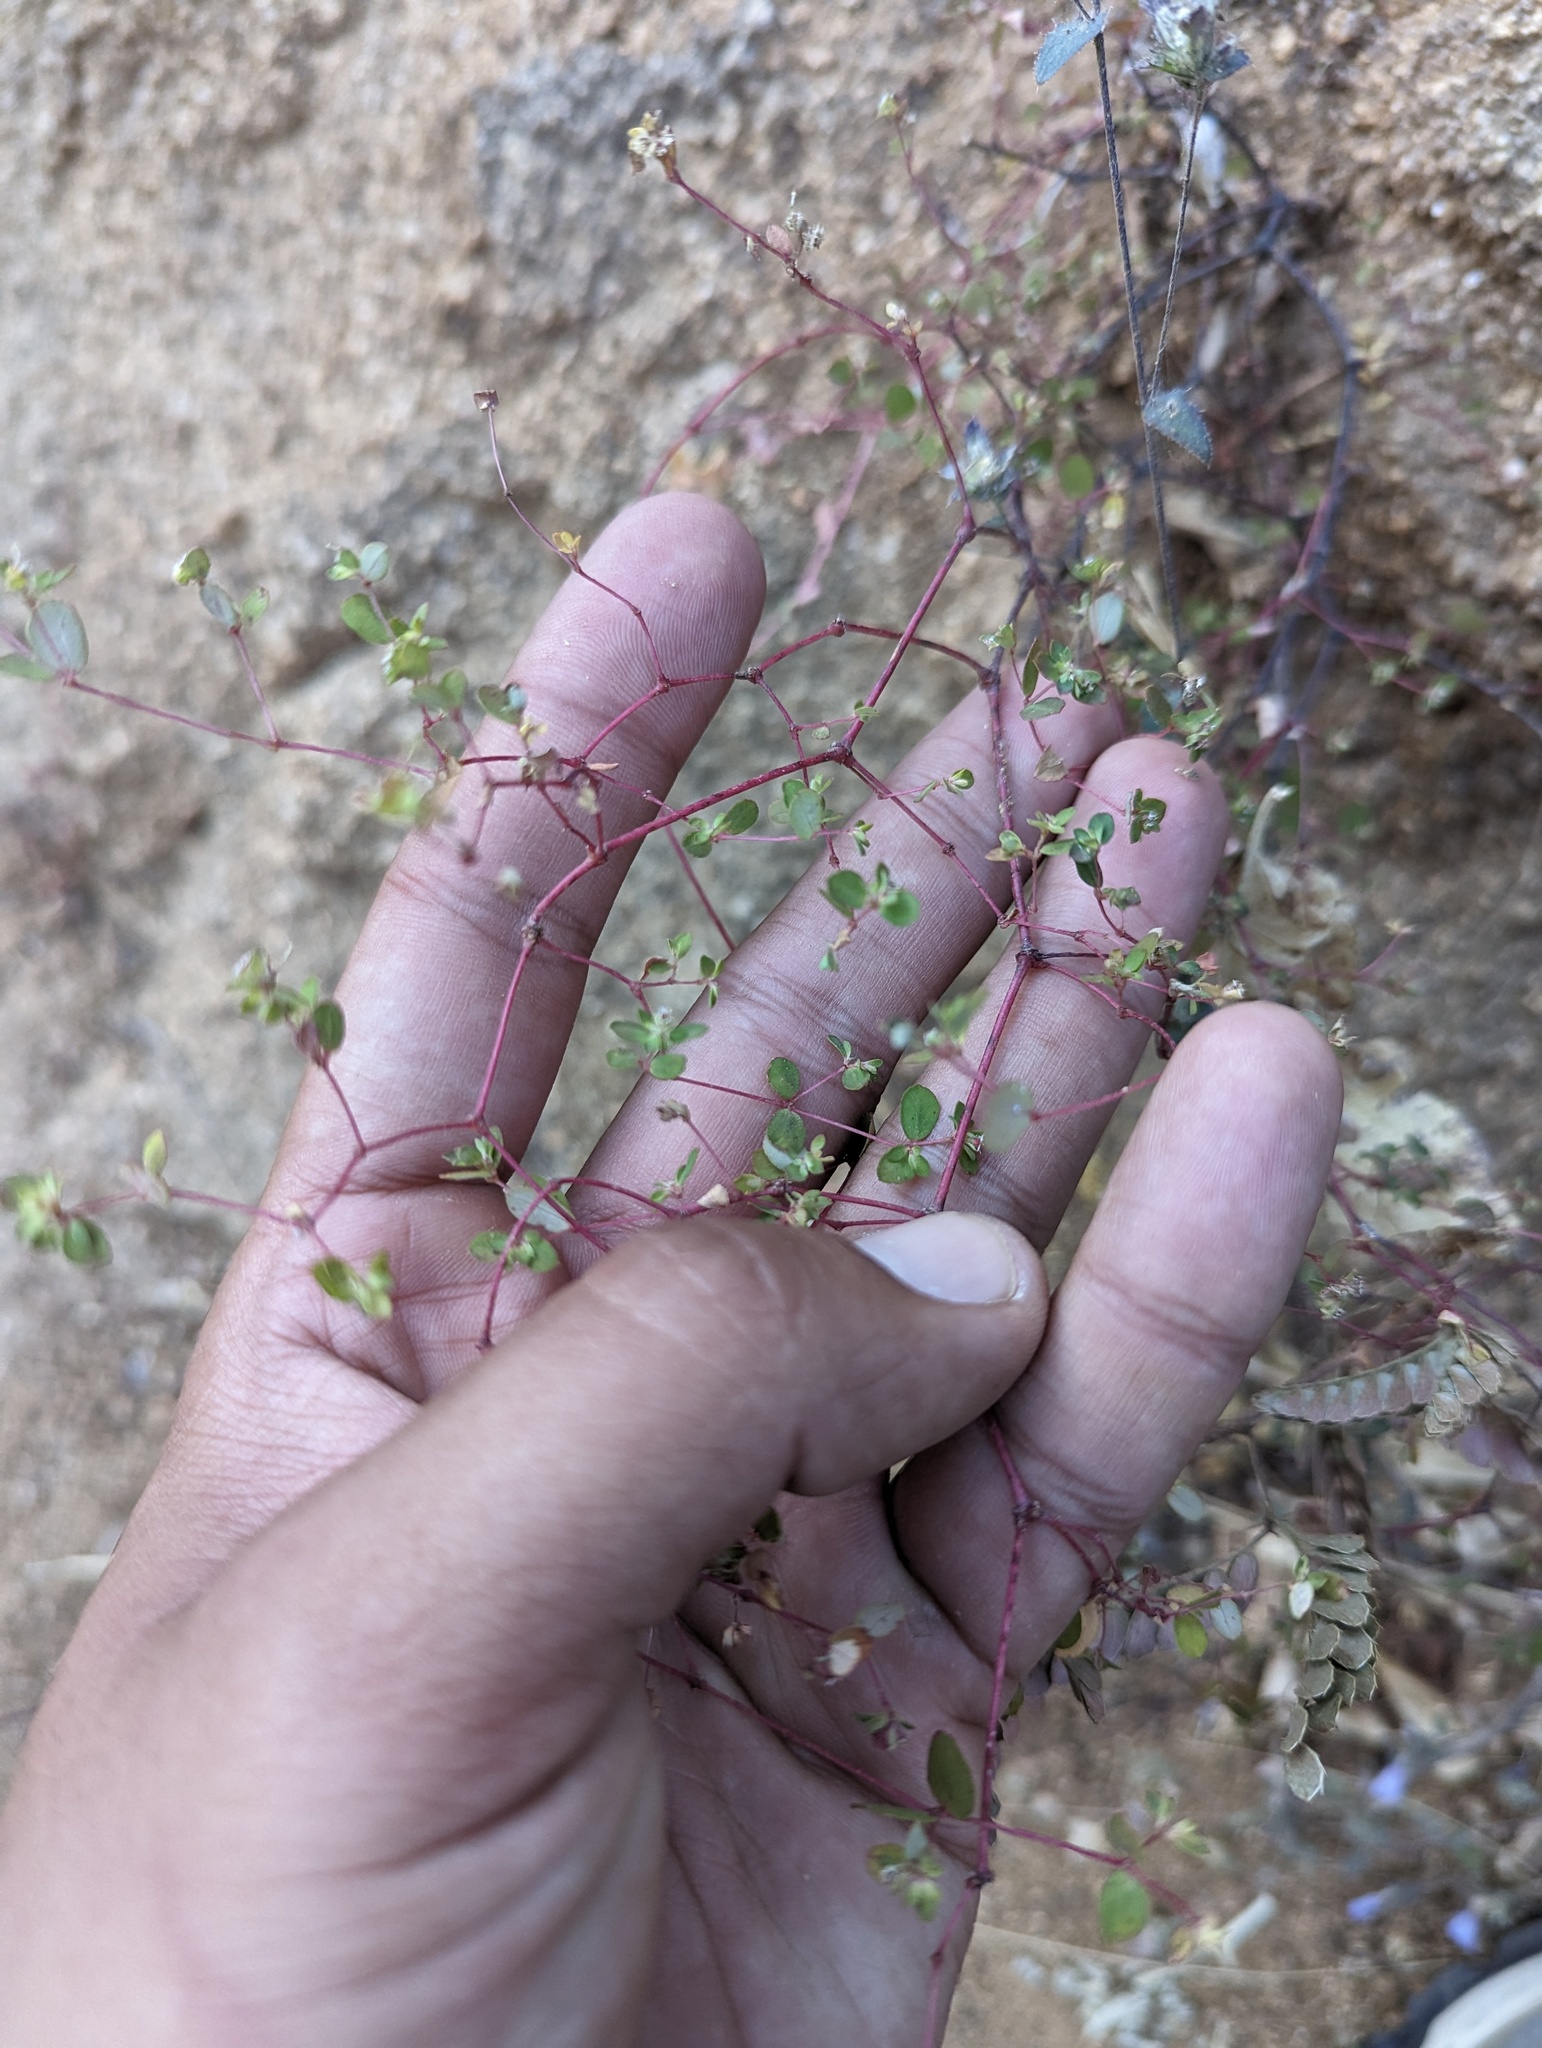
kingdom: Plantae
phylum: Tracheophyta
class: Magnoliopsida
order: Malpighiales
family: Euphorbiaceae
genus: Euphorbia
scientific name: Euphorbia dentosa
